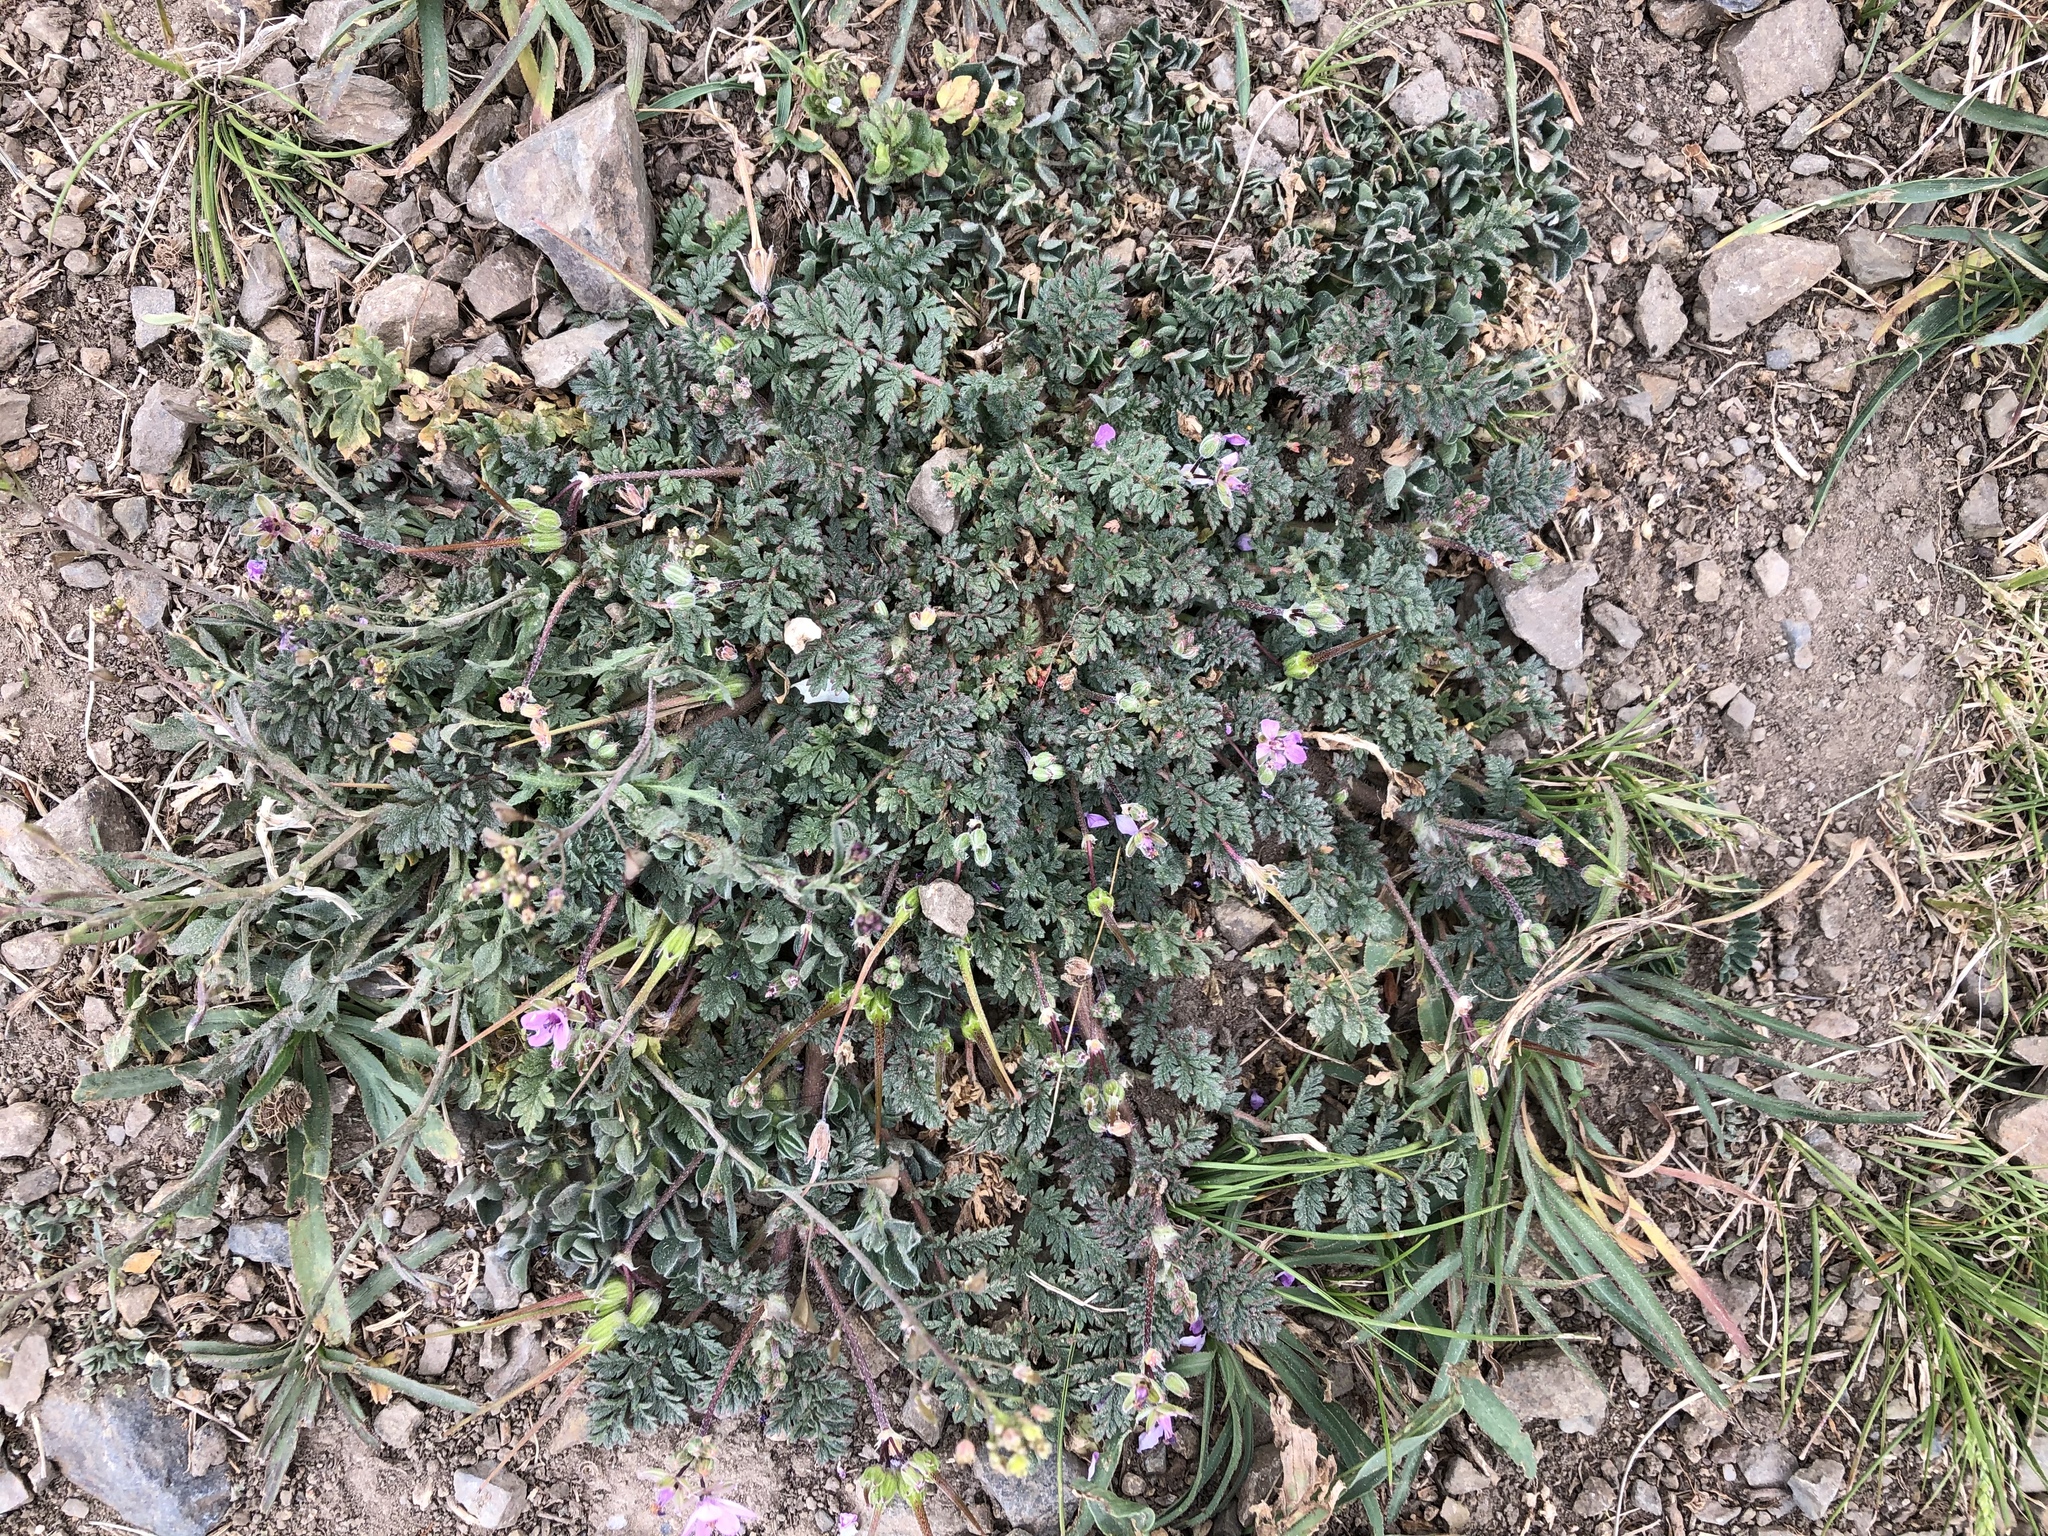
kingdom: Plantae
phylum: Tracheophyta
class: Magnoliopsida
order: Geraniales
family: Geraniaceae
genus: Erodium
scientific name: Erodium cicutarium
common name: Common stork's-bill
